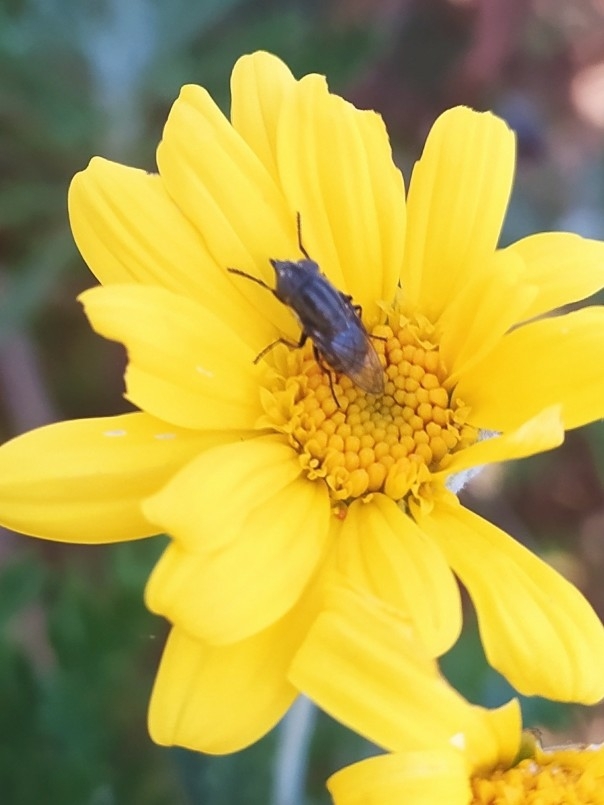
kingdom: Animalia
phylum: Arthropoda
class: Insecta
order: Diptera
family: Calliphoridae
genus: Stomorhina
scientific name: Stomorhina lunata
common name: Locust blowfly
